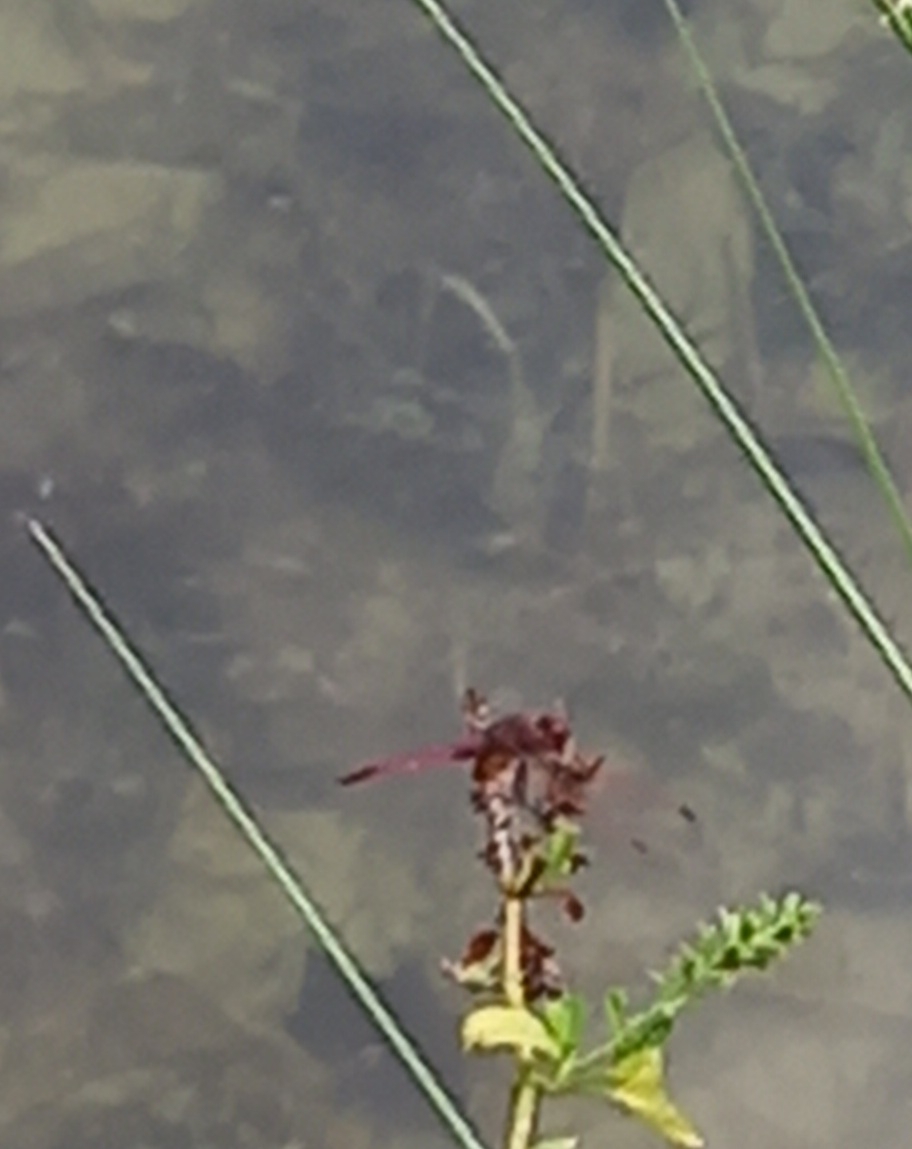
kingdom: Animalia
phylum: Arthropoda
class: Insecta
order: Odonata
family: Libellulidae
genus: Trithemis
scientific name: Trithemis annulata
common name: Violet dropwing
